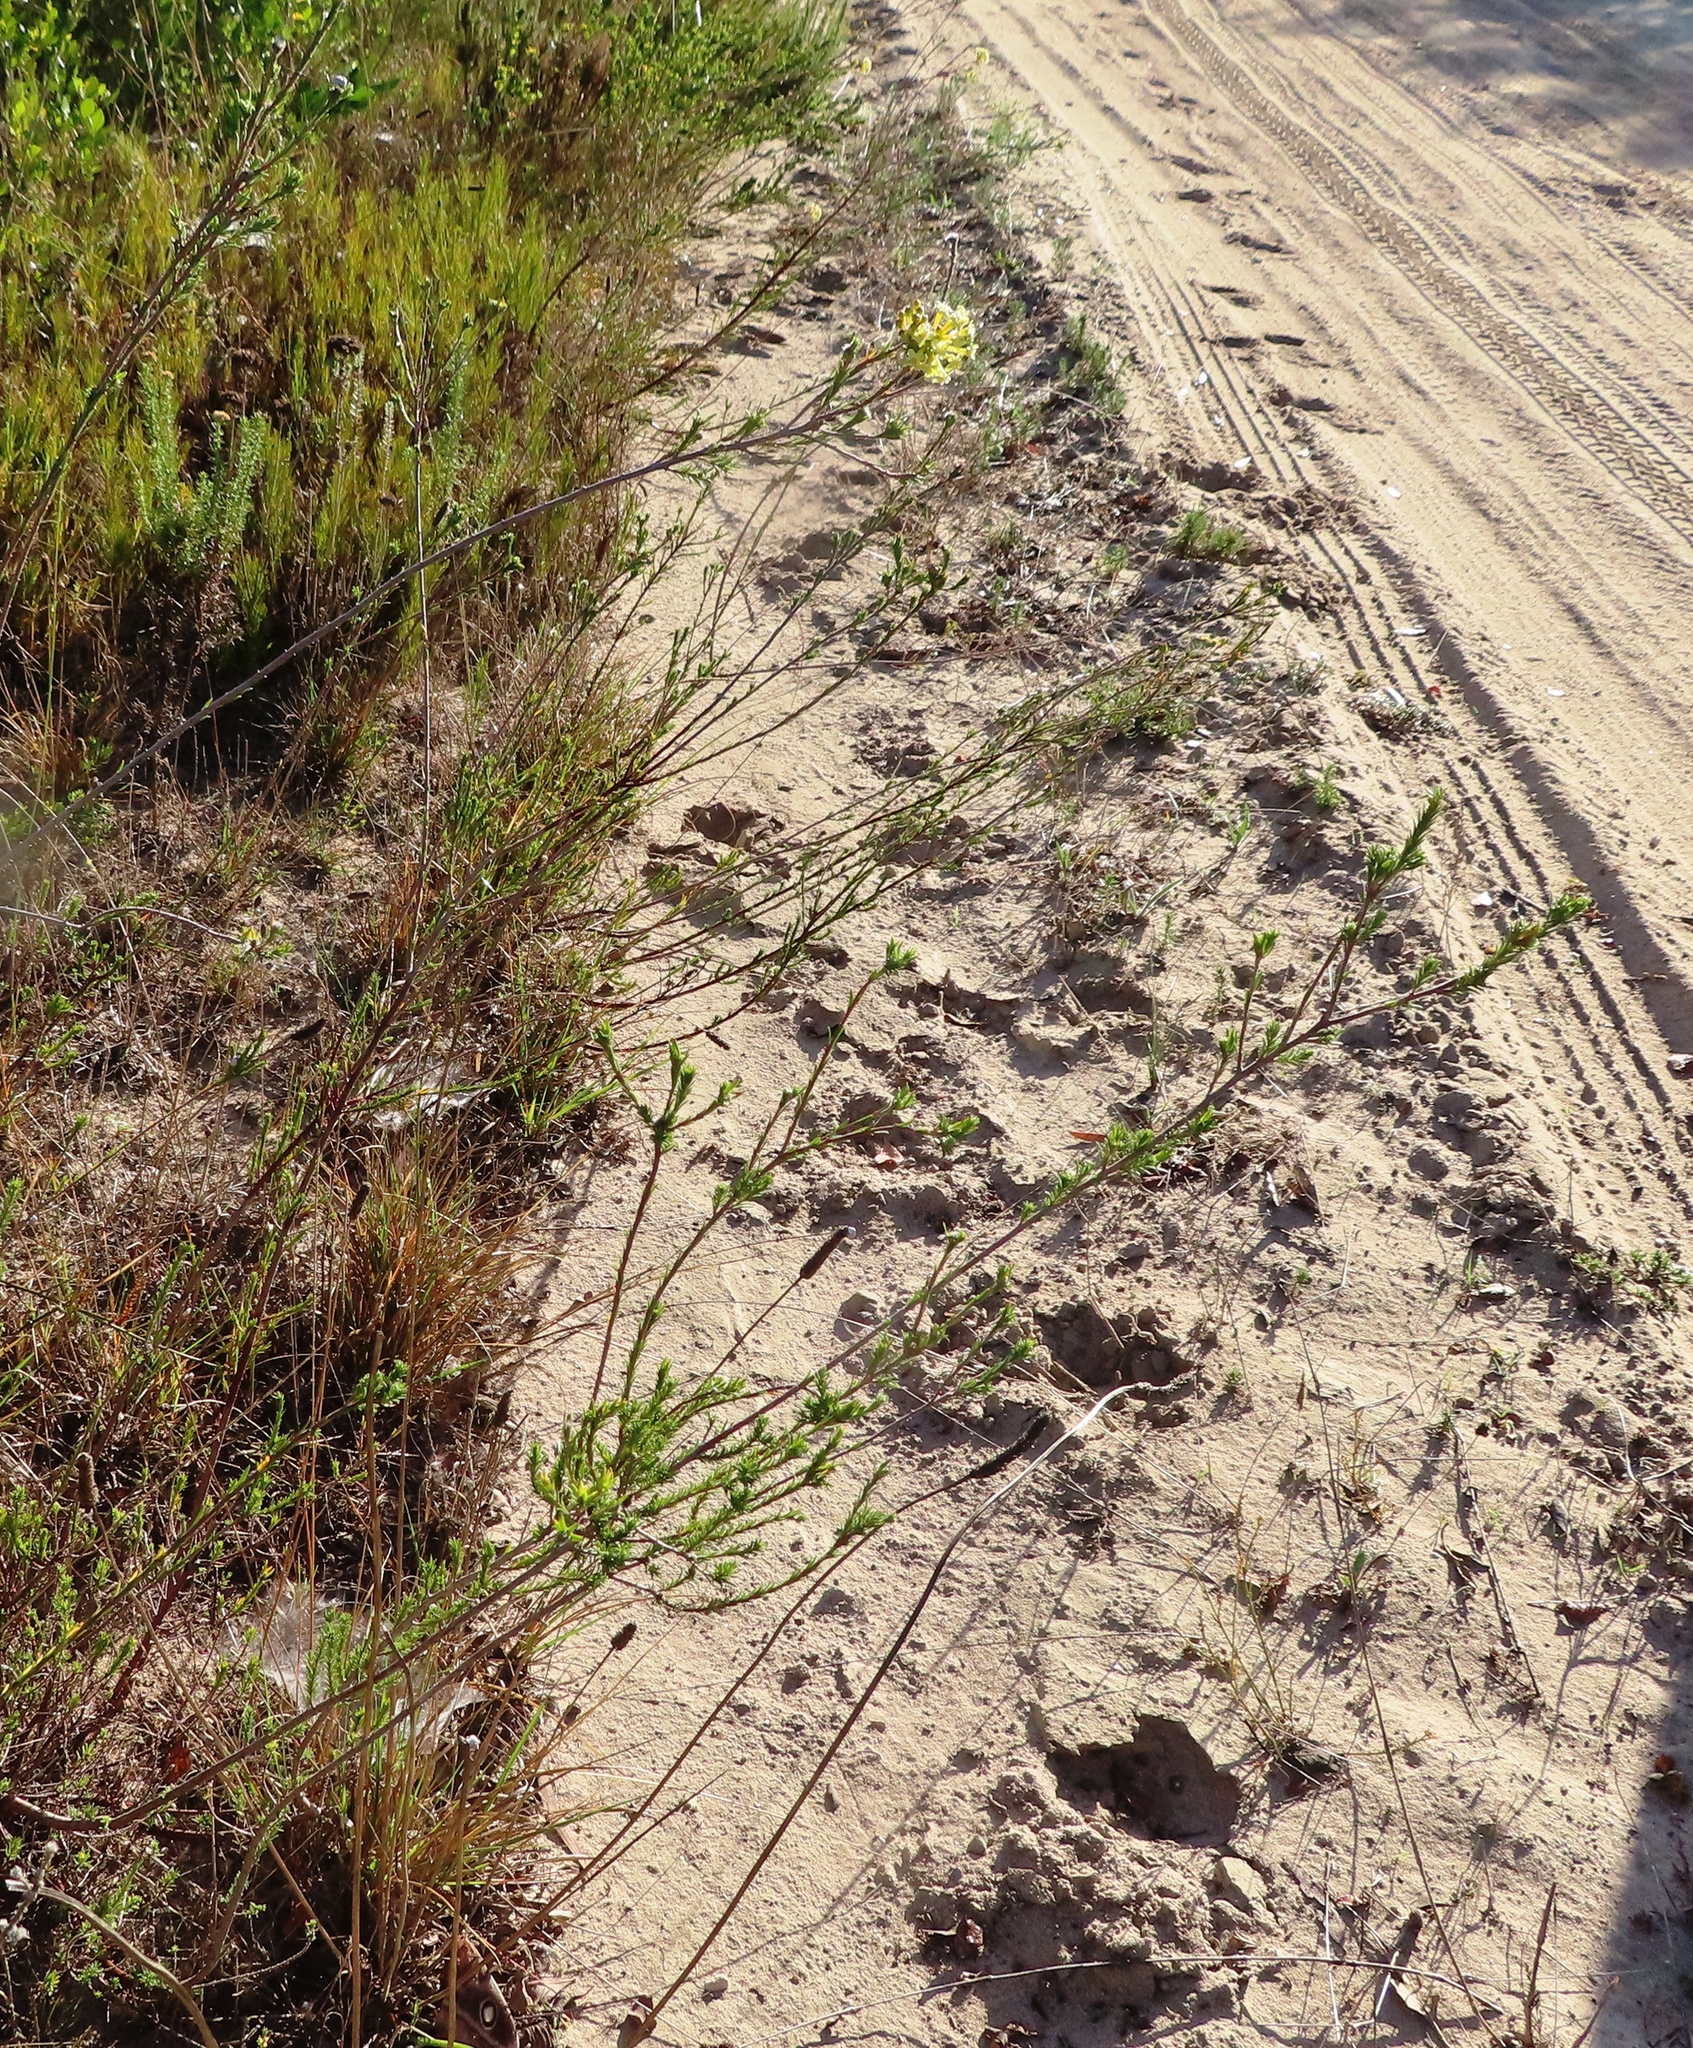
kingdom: Plantae
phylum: Tracheophyta
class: Magnoliopsida
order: Malvales
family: Thymelaeaceae
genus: Gnidia
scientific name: Gnidia squarrosa
